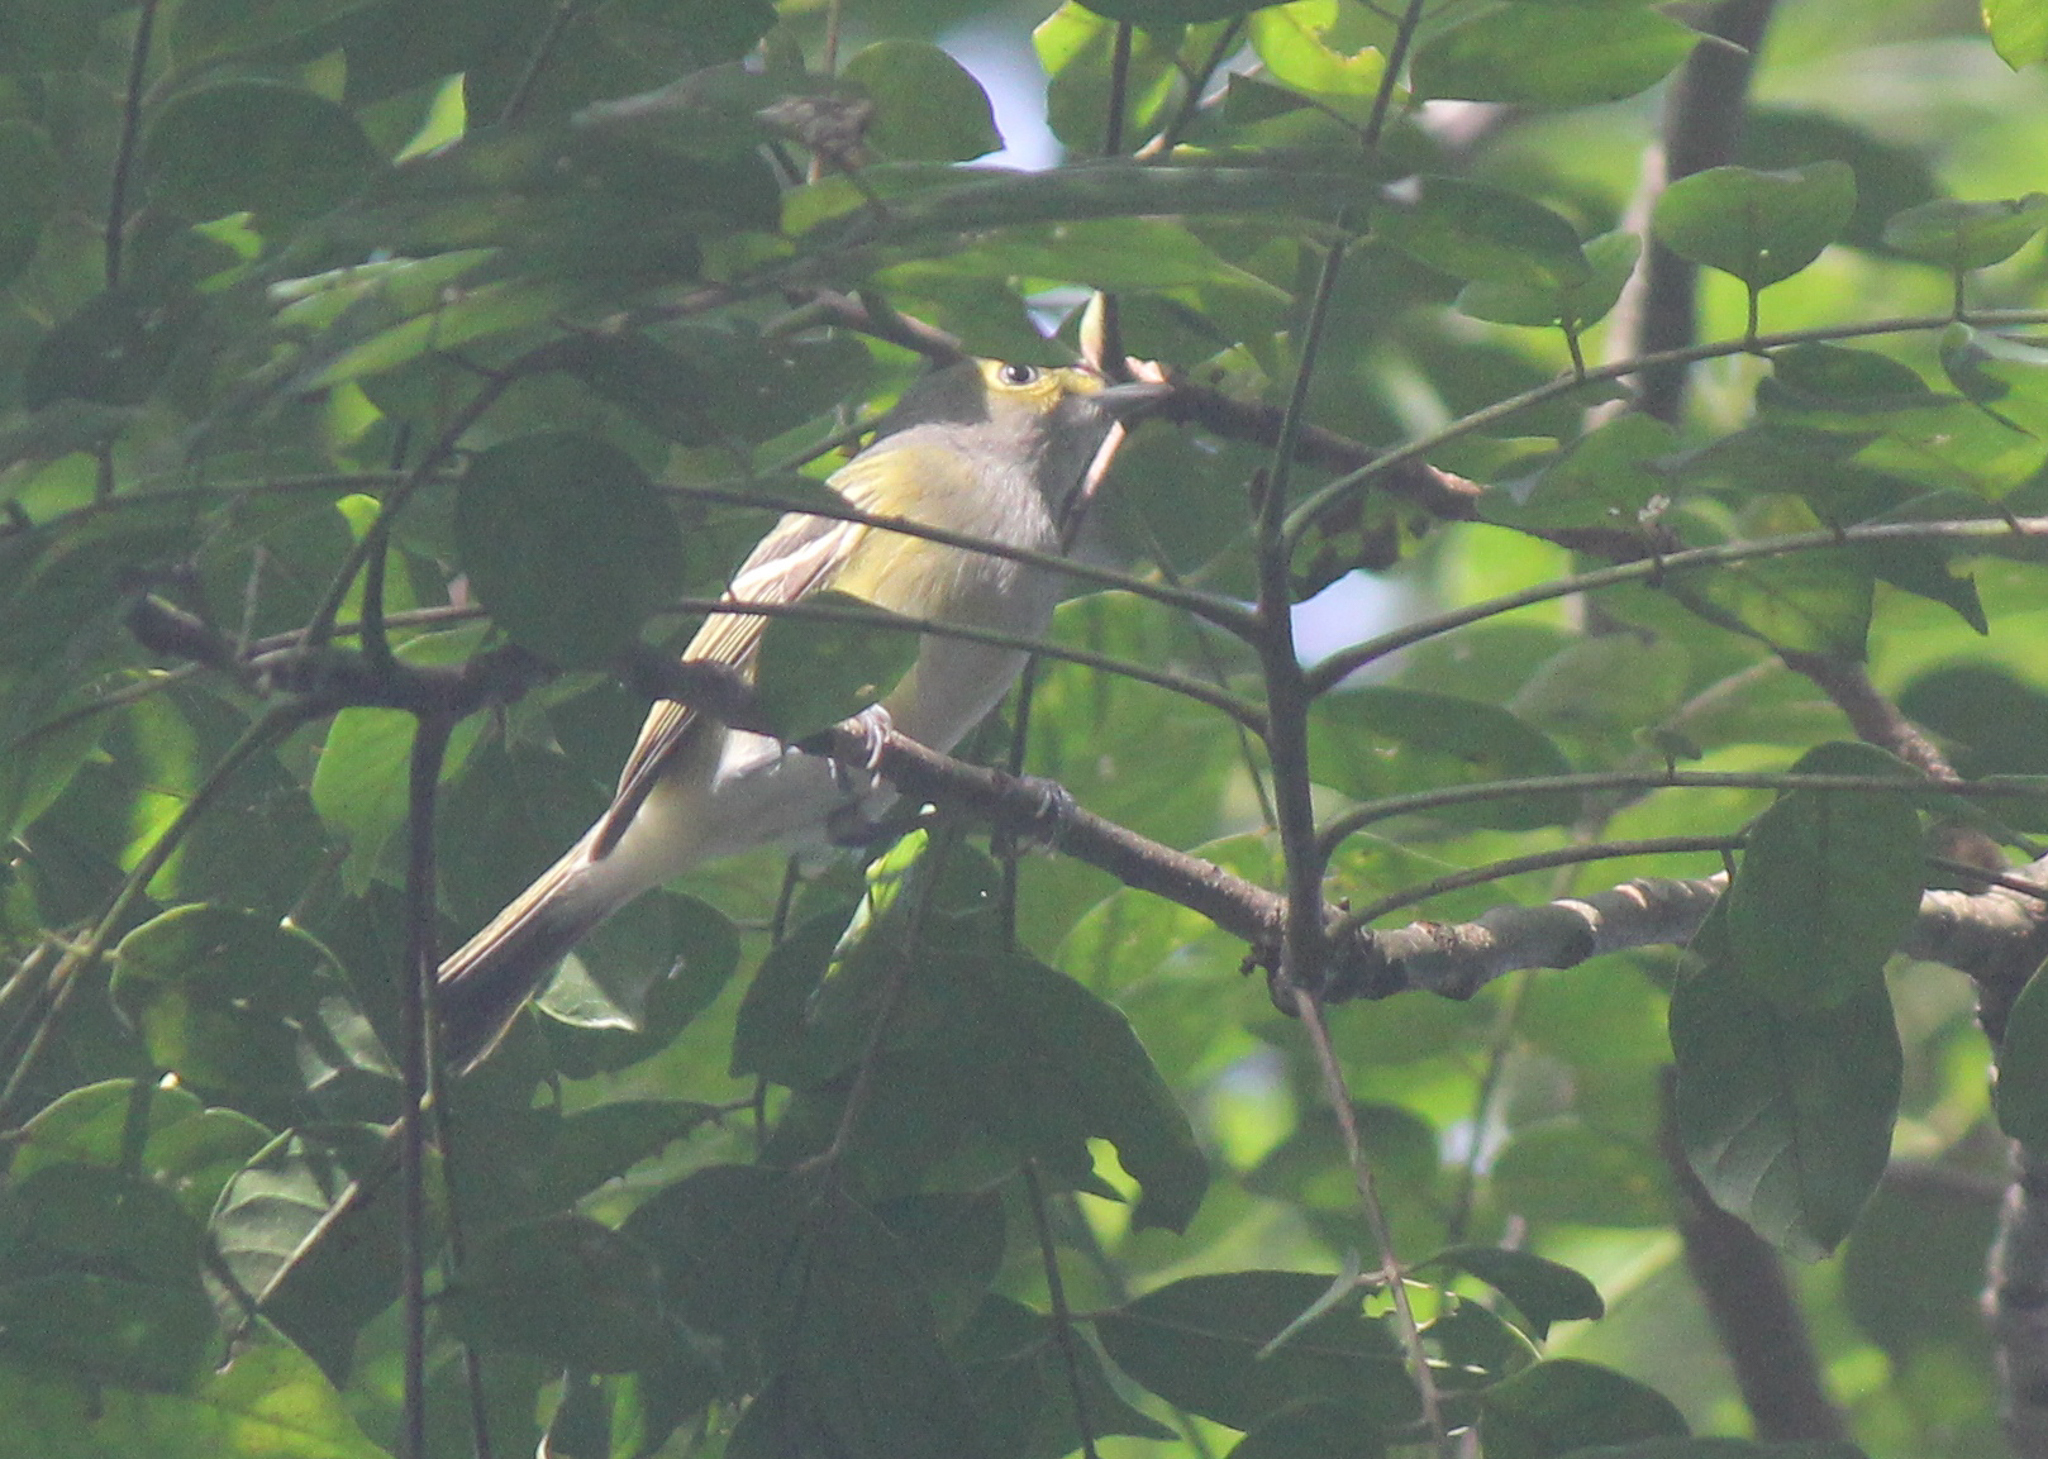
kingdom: Animalia
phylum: Chordata
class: Aves
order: Passeriformes
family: Vireonidae
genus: Vireo
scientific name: Vireo griseus
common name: White-eyed vireo
